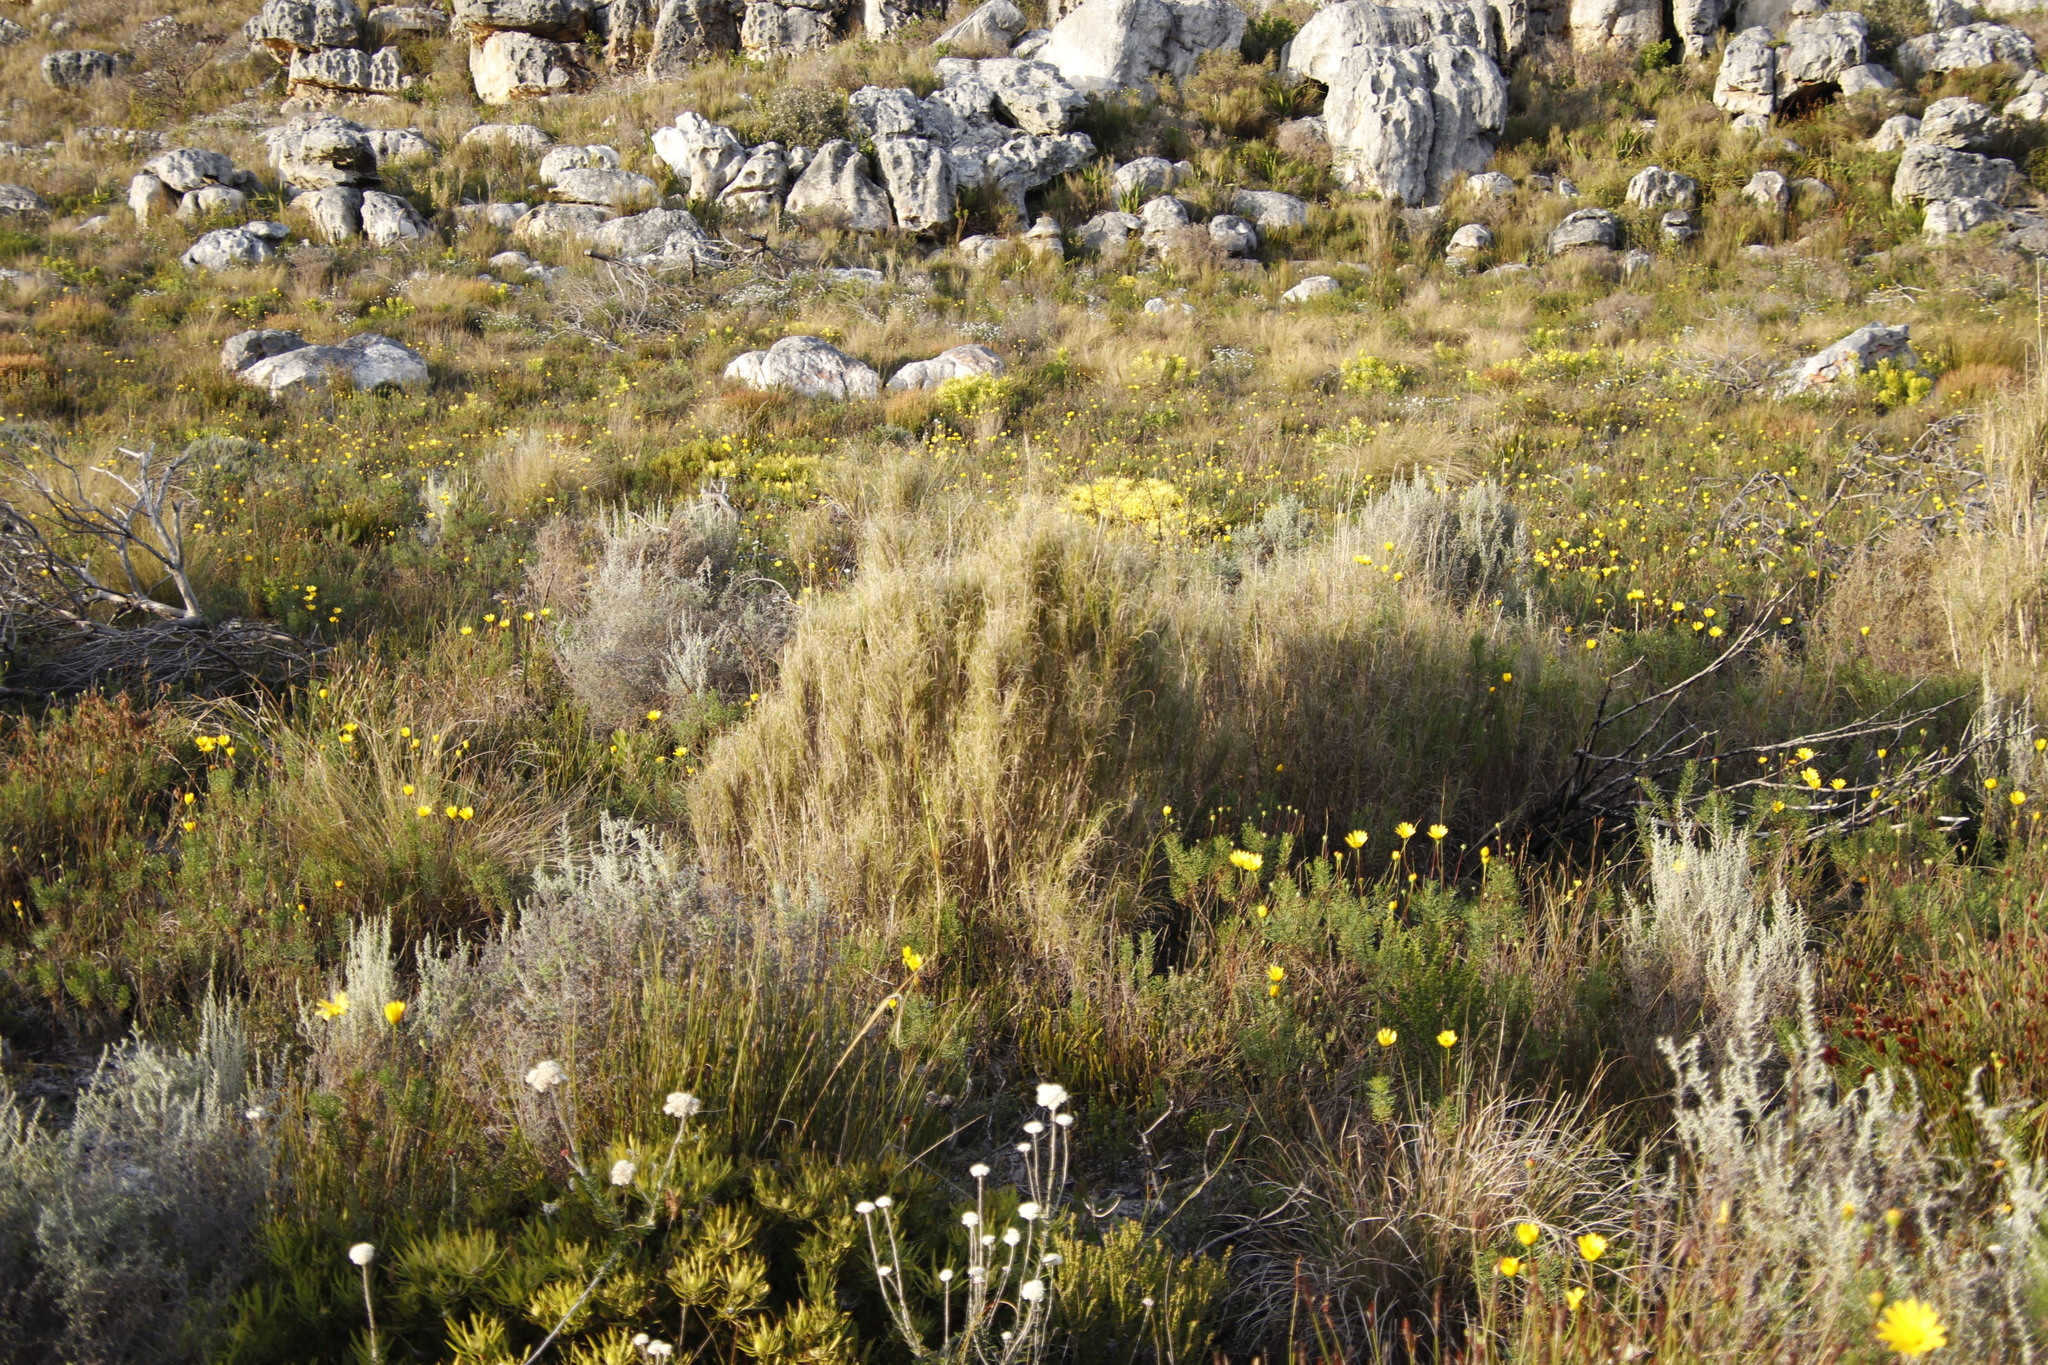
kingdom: Plantae
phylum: Tracheophyta
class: Liliopsida
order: Poales
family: Poaceae
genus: Pseudopentameris
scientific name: Pseudopentameris macrantha
